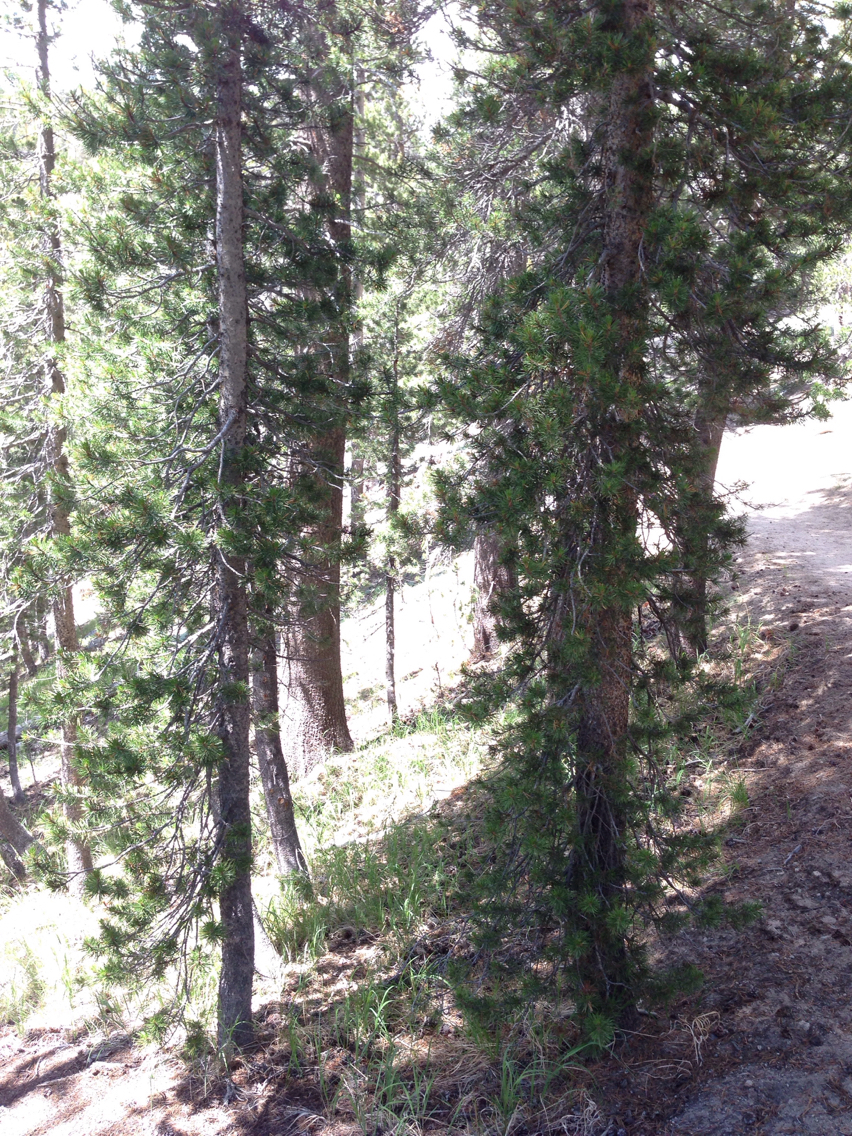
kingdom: Plantae
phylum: Tracheophyta
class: Pinopsida
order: Pinales
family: Pinaceae
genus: Pinus
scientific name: Pinus contorta
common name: Lodgepole pine
